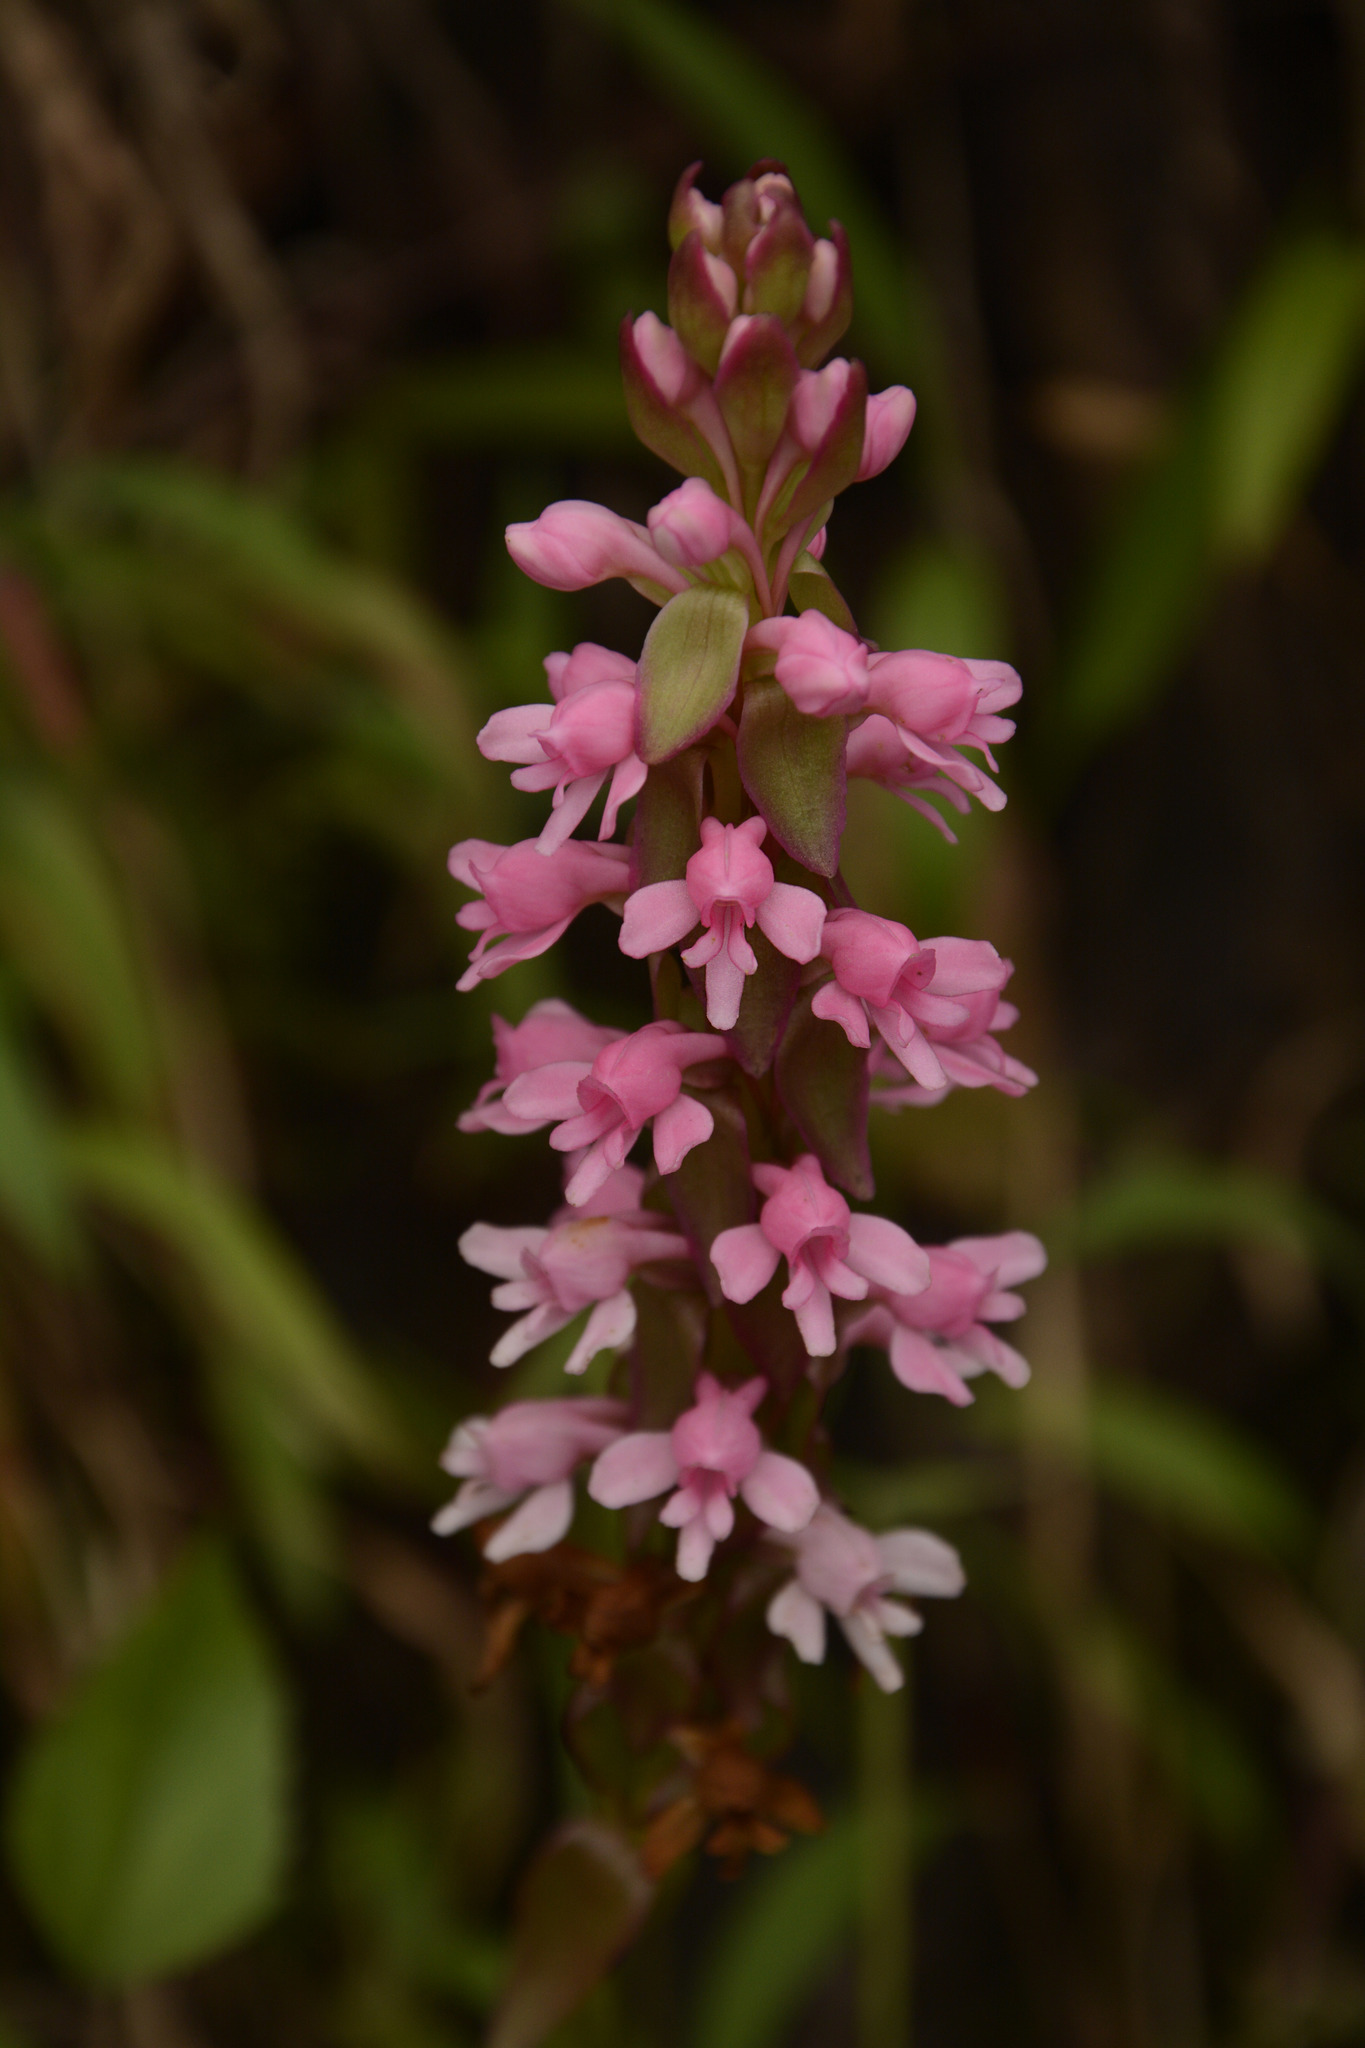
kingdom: Plantae
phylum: Tracheophyta
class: Liliopsida
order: Asparagales
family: Orchidaceae
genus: Satyrium
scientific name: Satyrium nepalense
